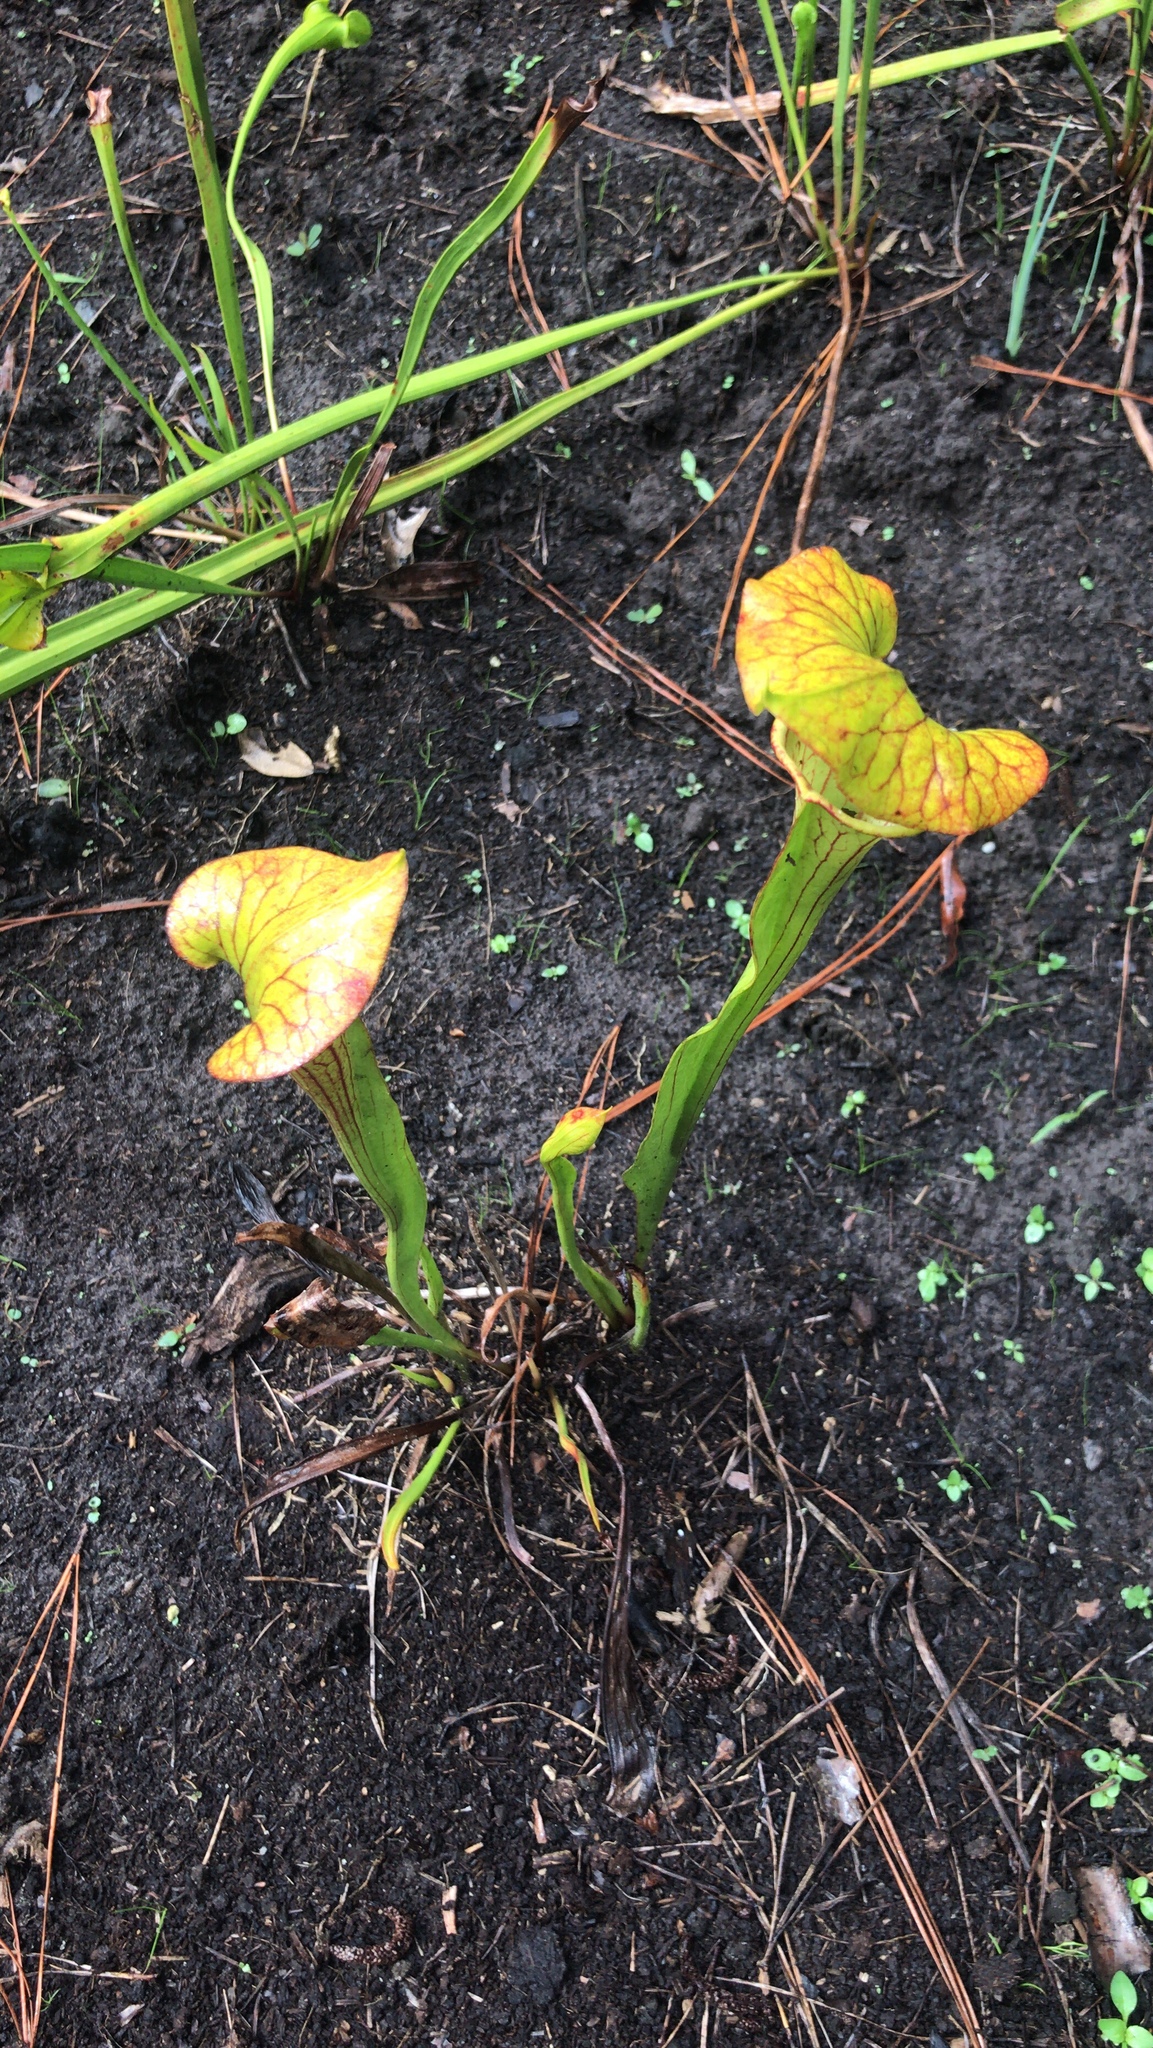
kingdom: Plantae
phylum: Tracheophyta
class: Magnoliopsida
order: Ericales
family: Sarraceniaceae
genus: Sarracenia
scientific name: Sarracenia flava
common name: Trumpets
